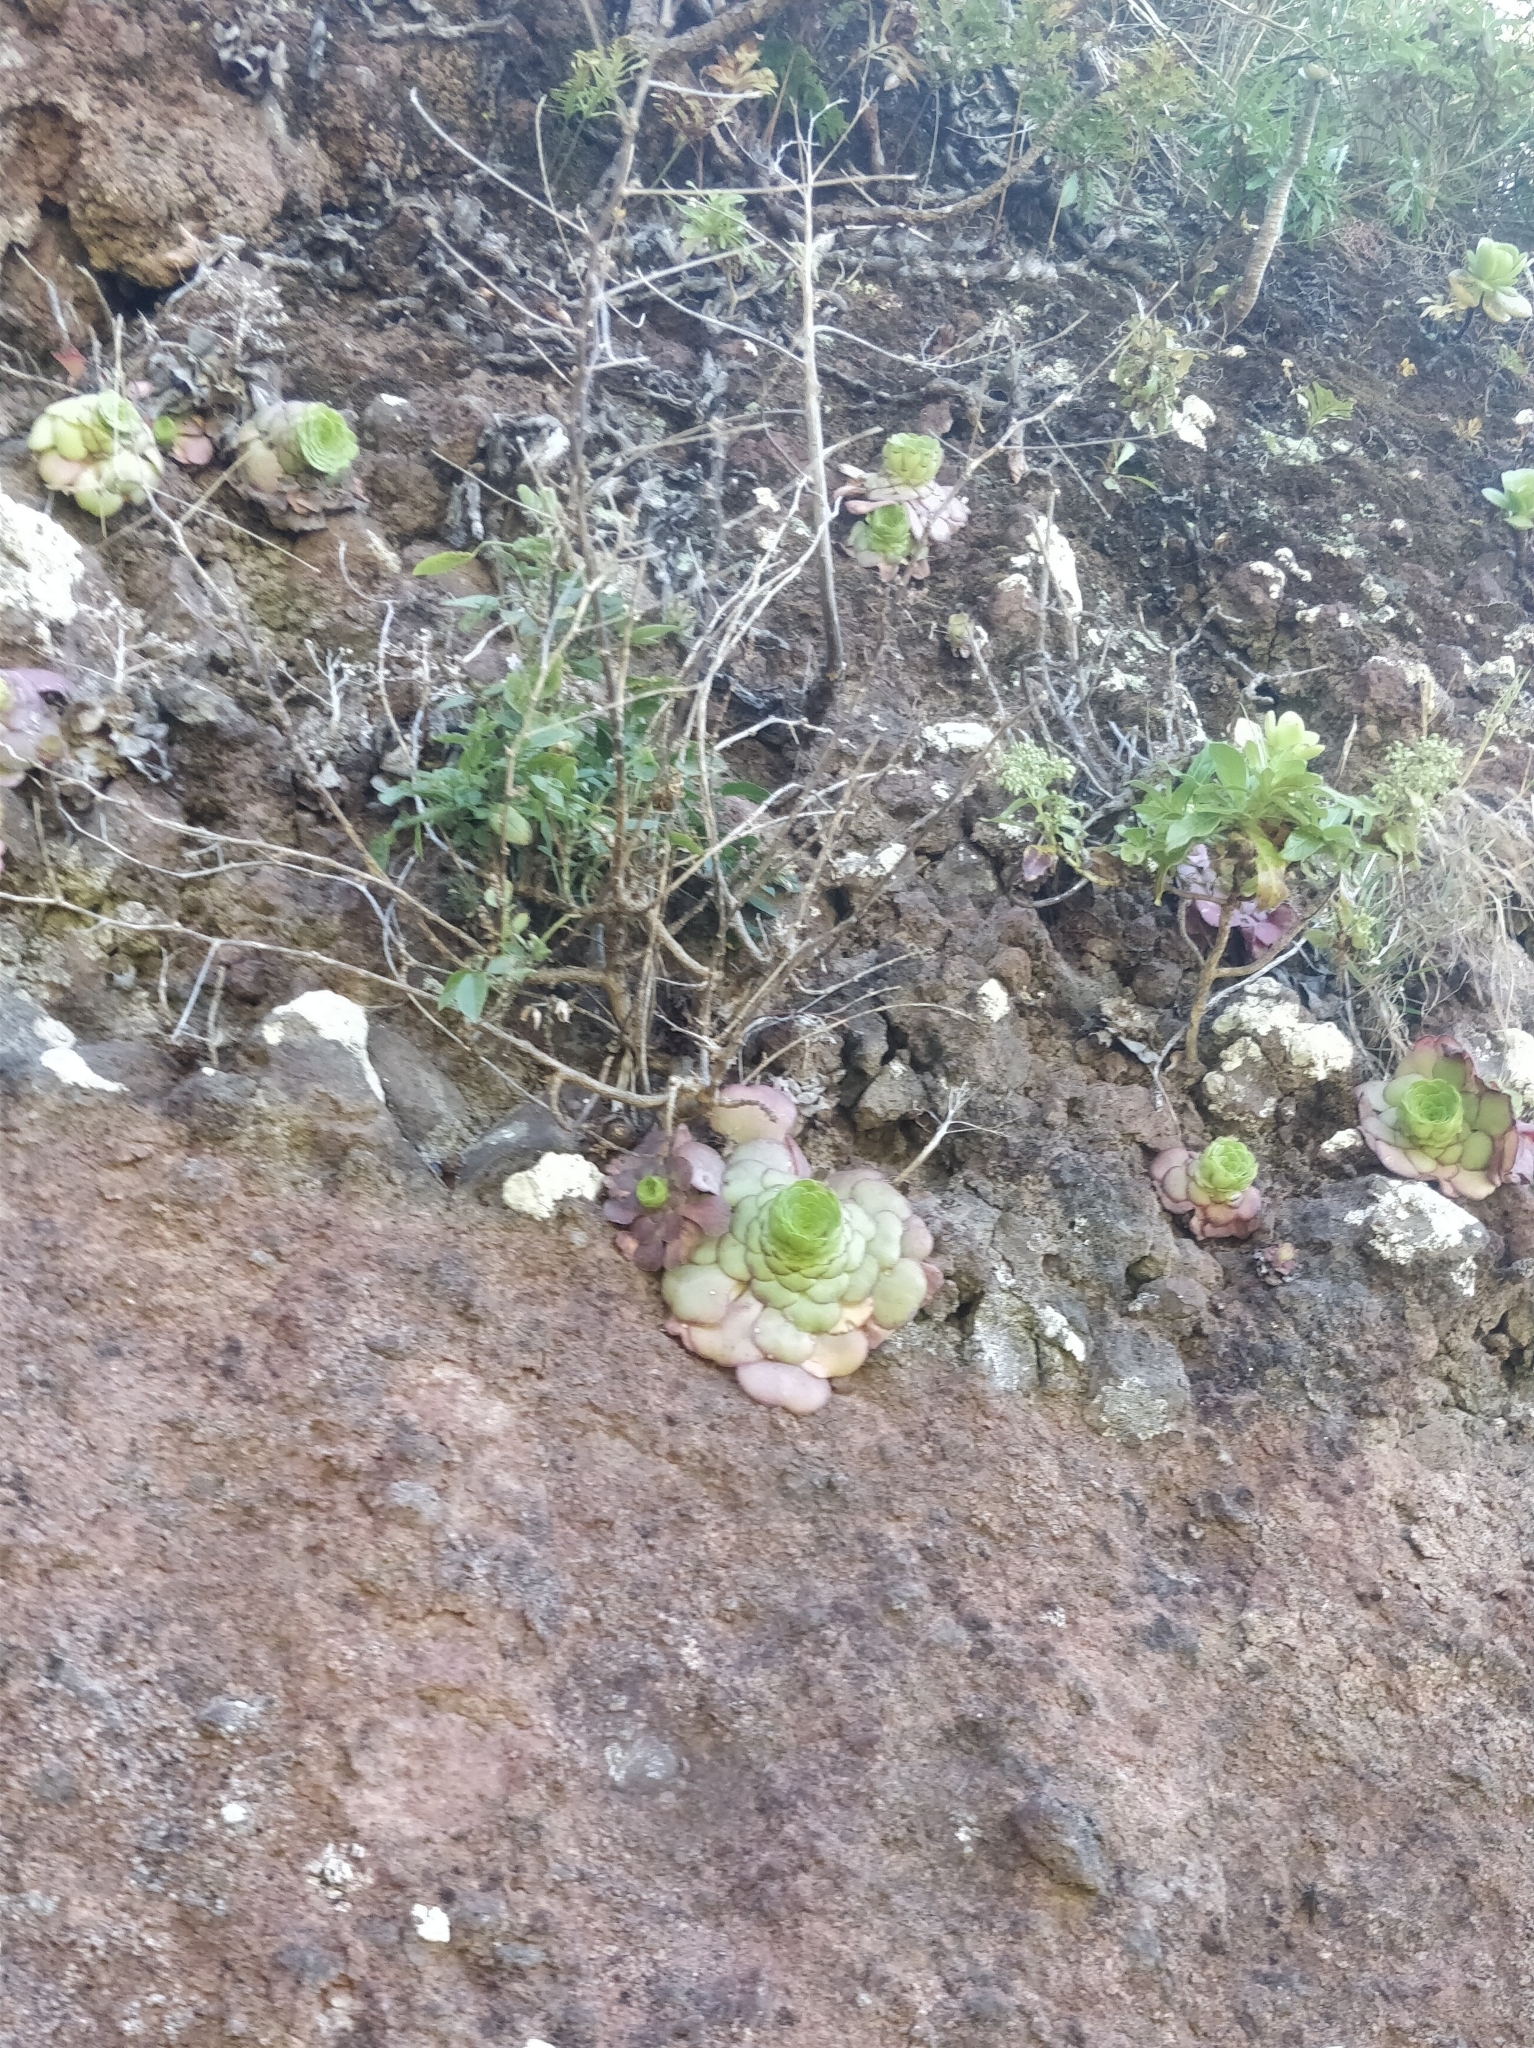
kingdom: Plantae
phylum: Tracheophyta
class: Magnoliopsida
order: Saxifragales
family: Crassulaceae
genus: Aeonium
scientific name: Aeonium glandulosum
